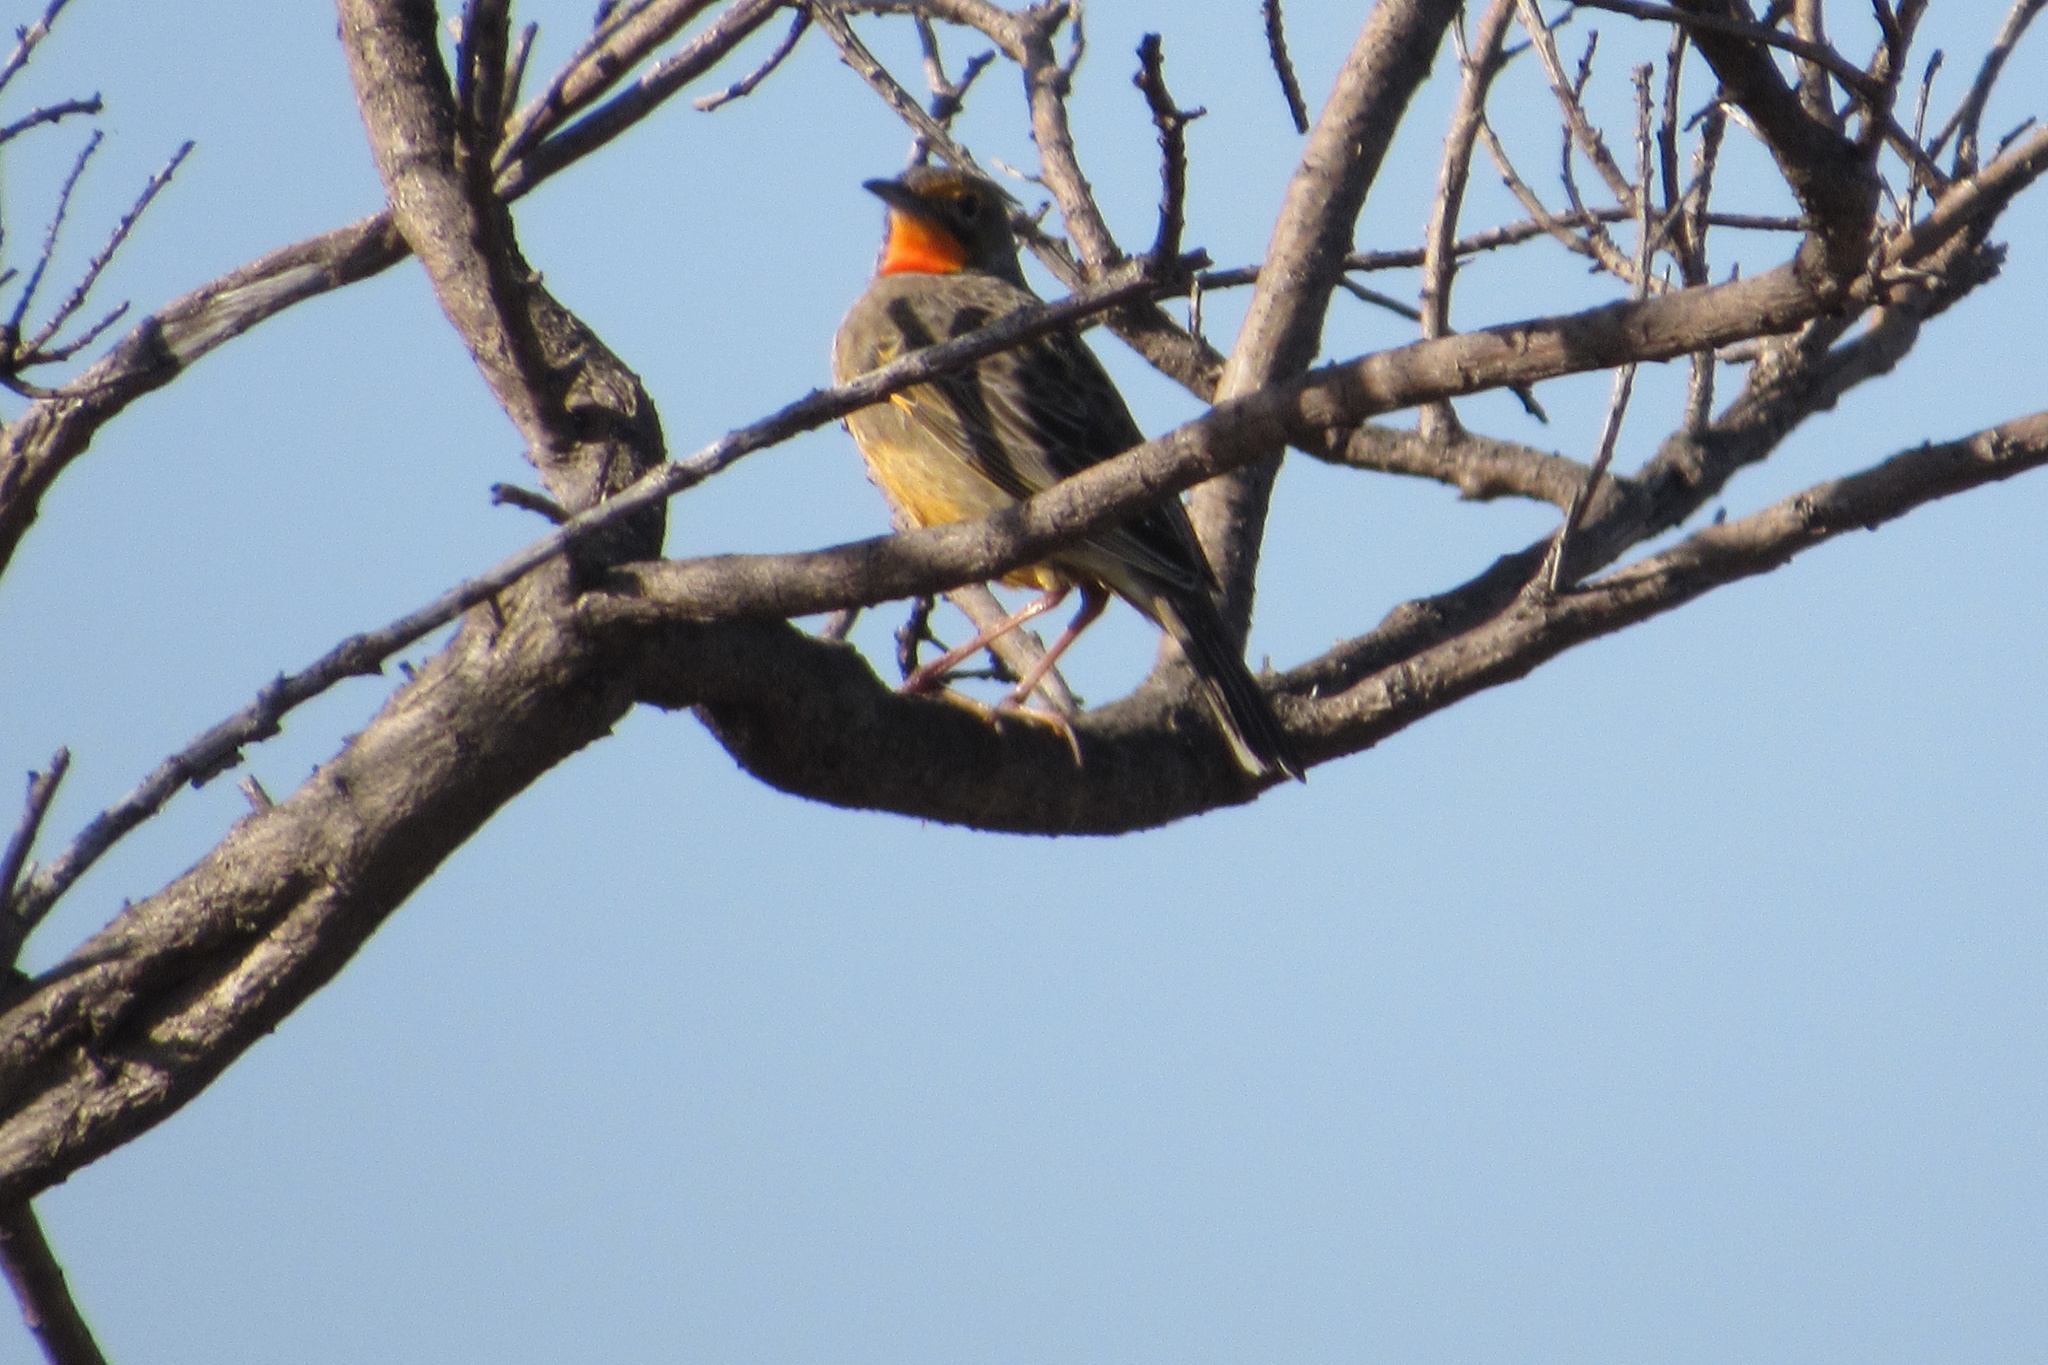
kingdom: Animalia
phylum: Chordata
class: Aves
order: Passeriformes
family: Motacillidae
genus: Macronyx
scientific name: Macronyx capensis
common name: Cape longclaw
